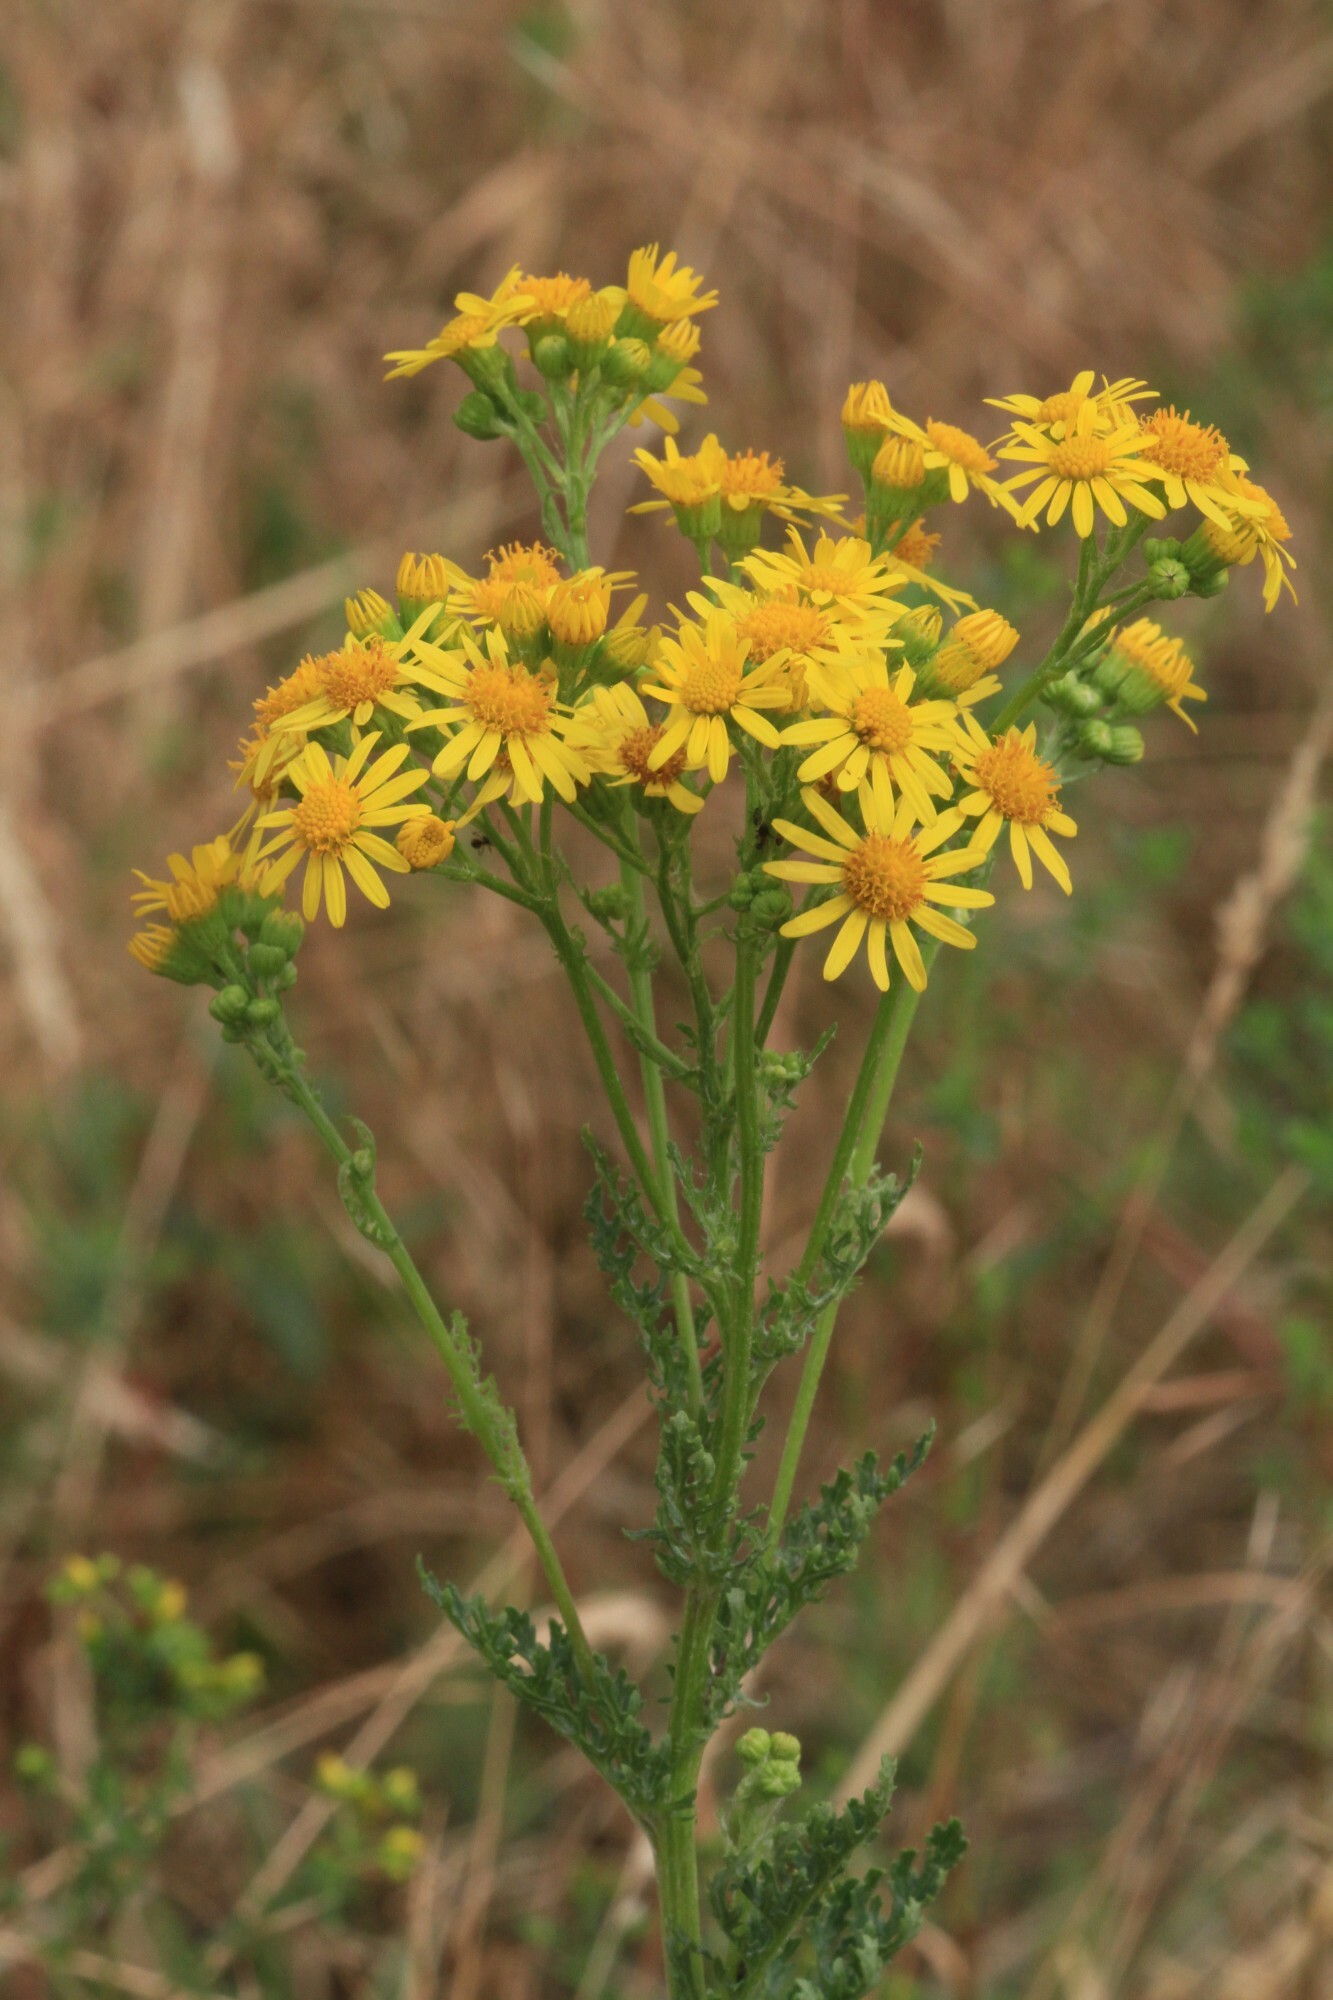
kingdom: Plantae
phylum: Tracheophyta
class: Magnoliopsida
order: Asterales
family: Asteraceae
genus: Jacobaea
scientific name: Jacobaea vulgaris
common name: Stinking willie
